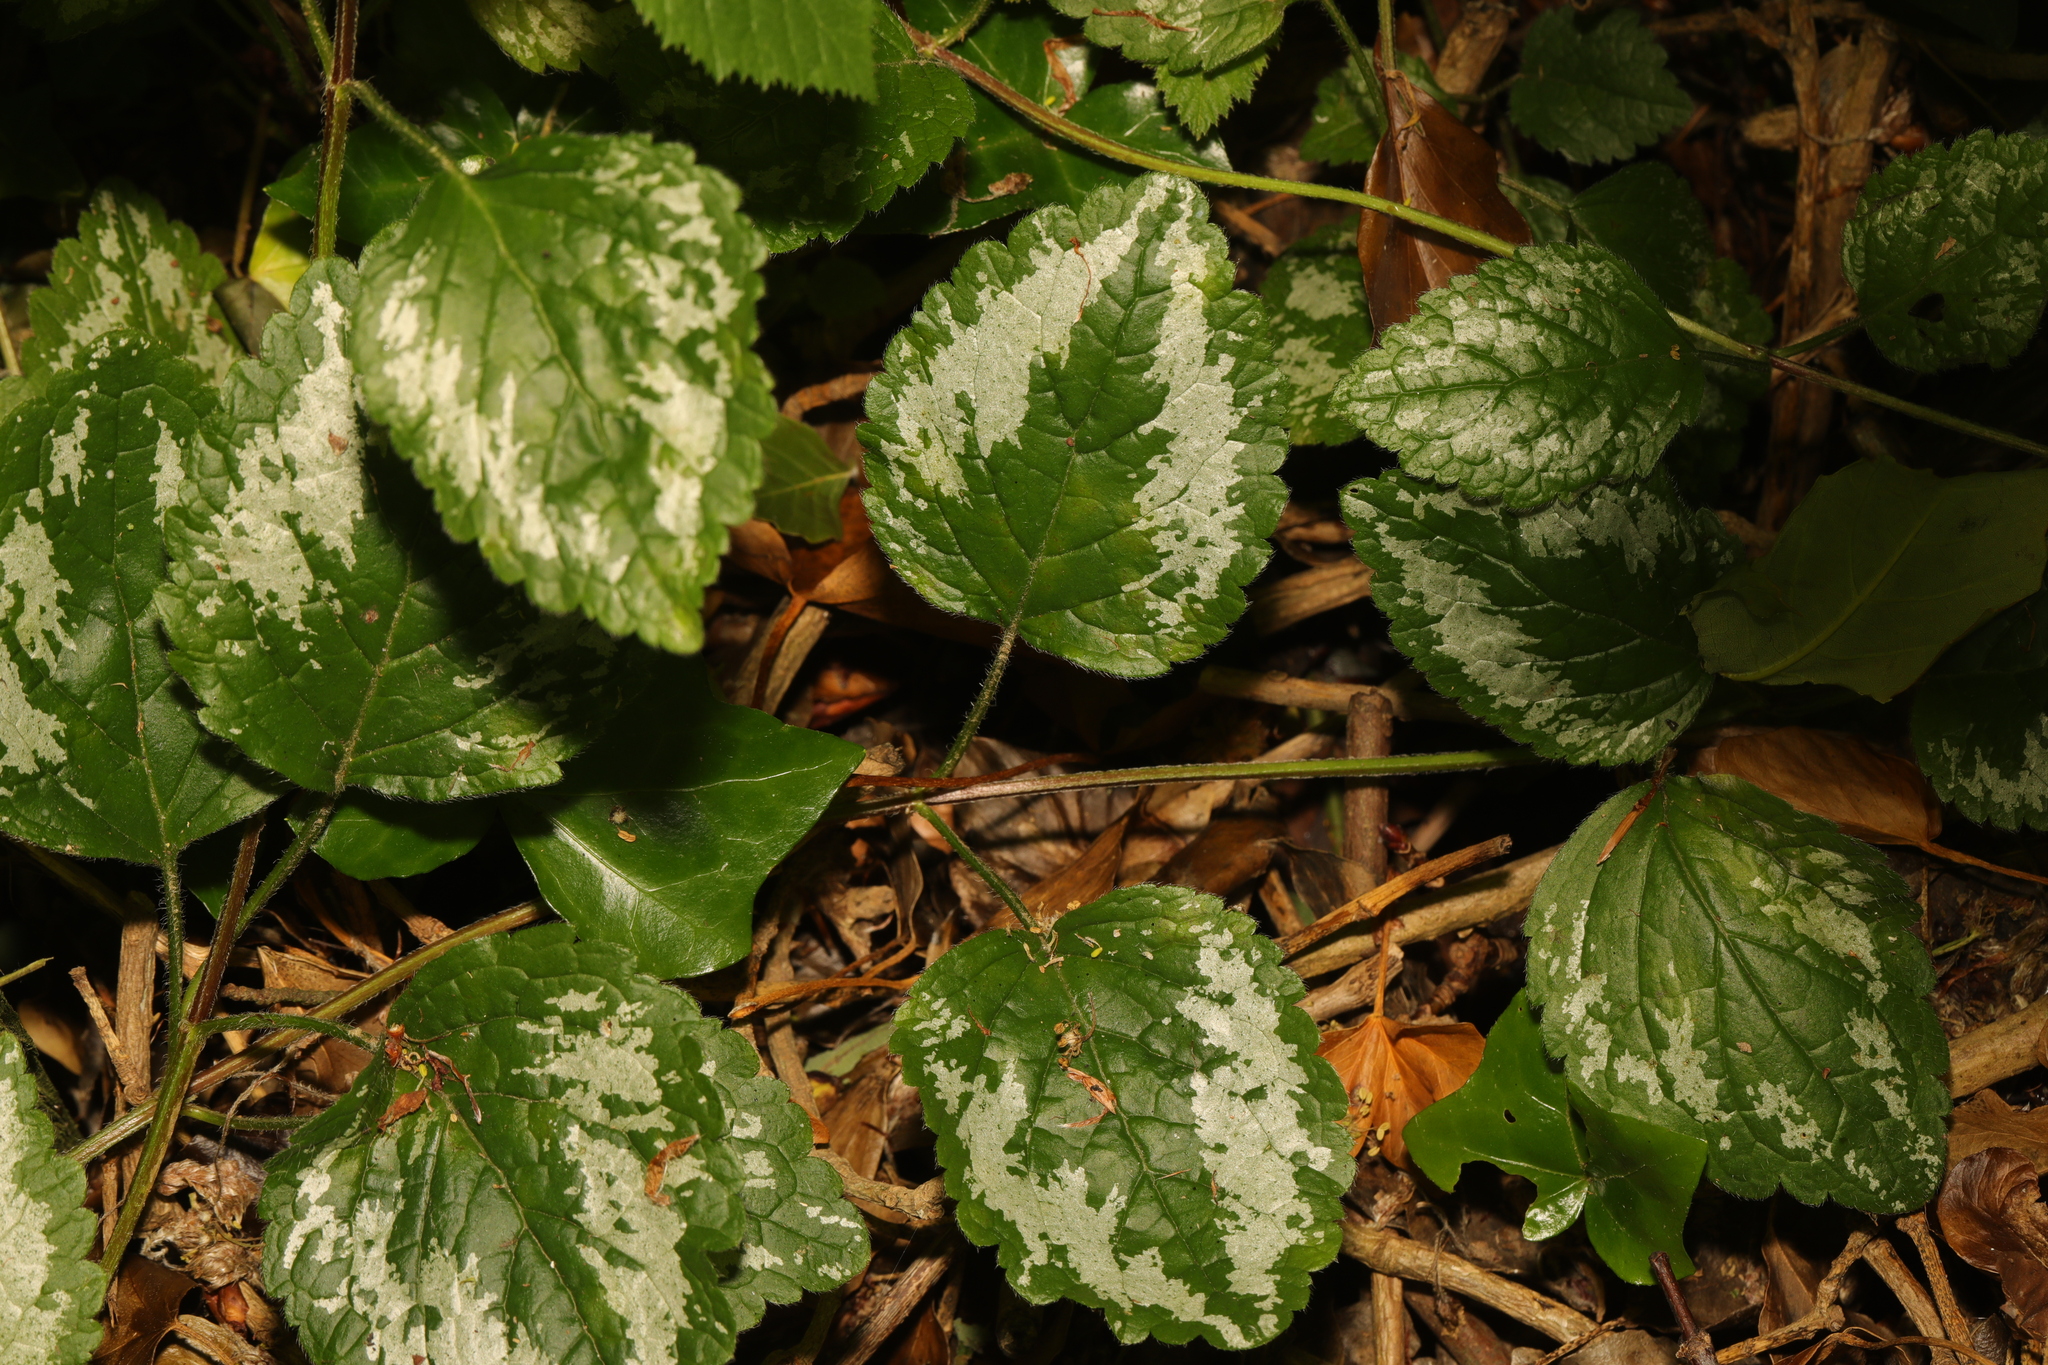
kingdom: Plantae
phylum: Tracheophyta
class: Magnoliopsida
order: Lamiales
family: Lamiaceae
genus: Lamium
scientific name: Lamium galeobdolon
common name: Yellow archangel
